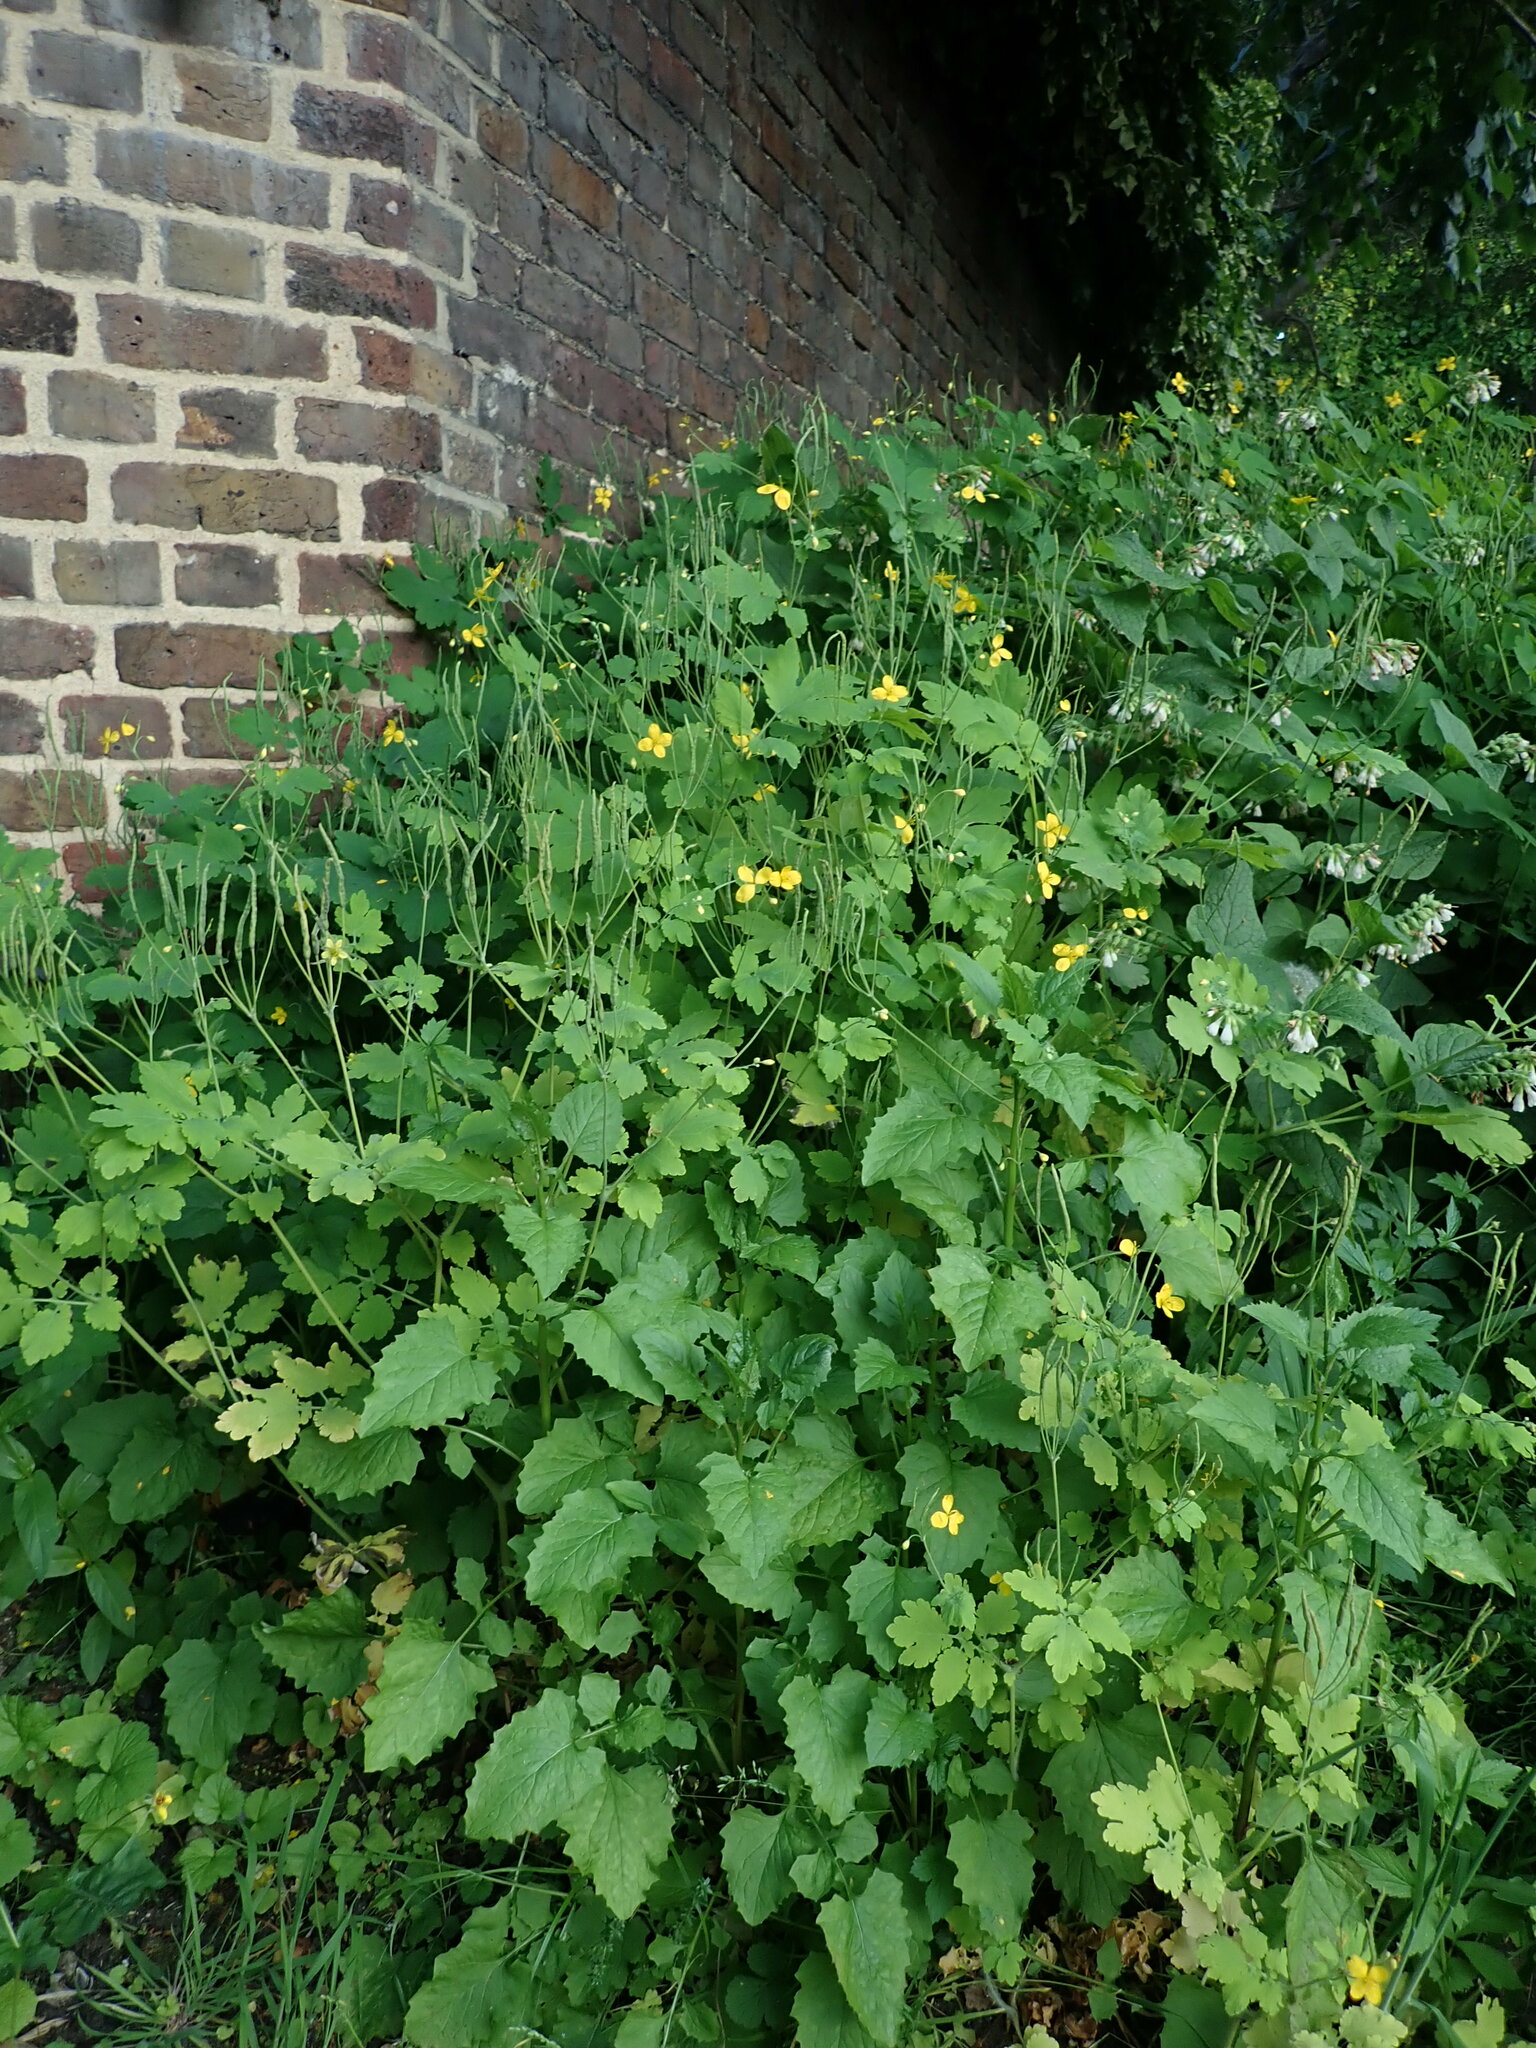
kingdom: Plantae
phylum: Tracheophyta
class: Magnoliopsida
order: Ranunculales
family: Papaveraceae
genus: Chelidonium
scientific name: Chelidonium majus
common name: Greater celandine
